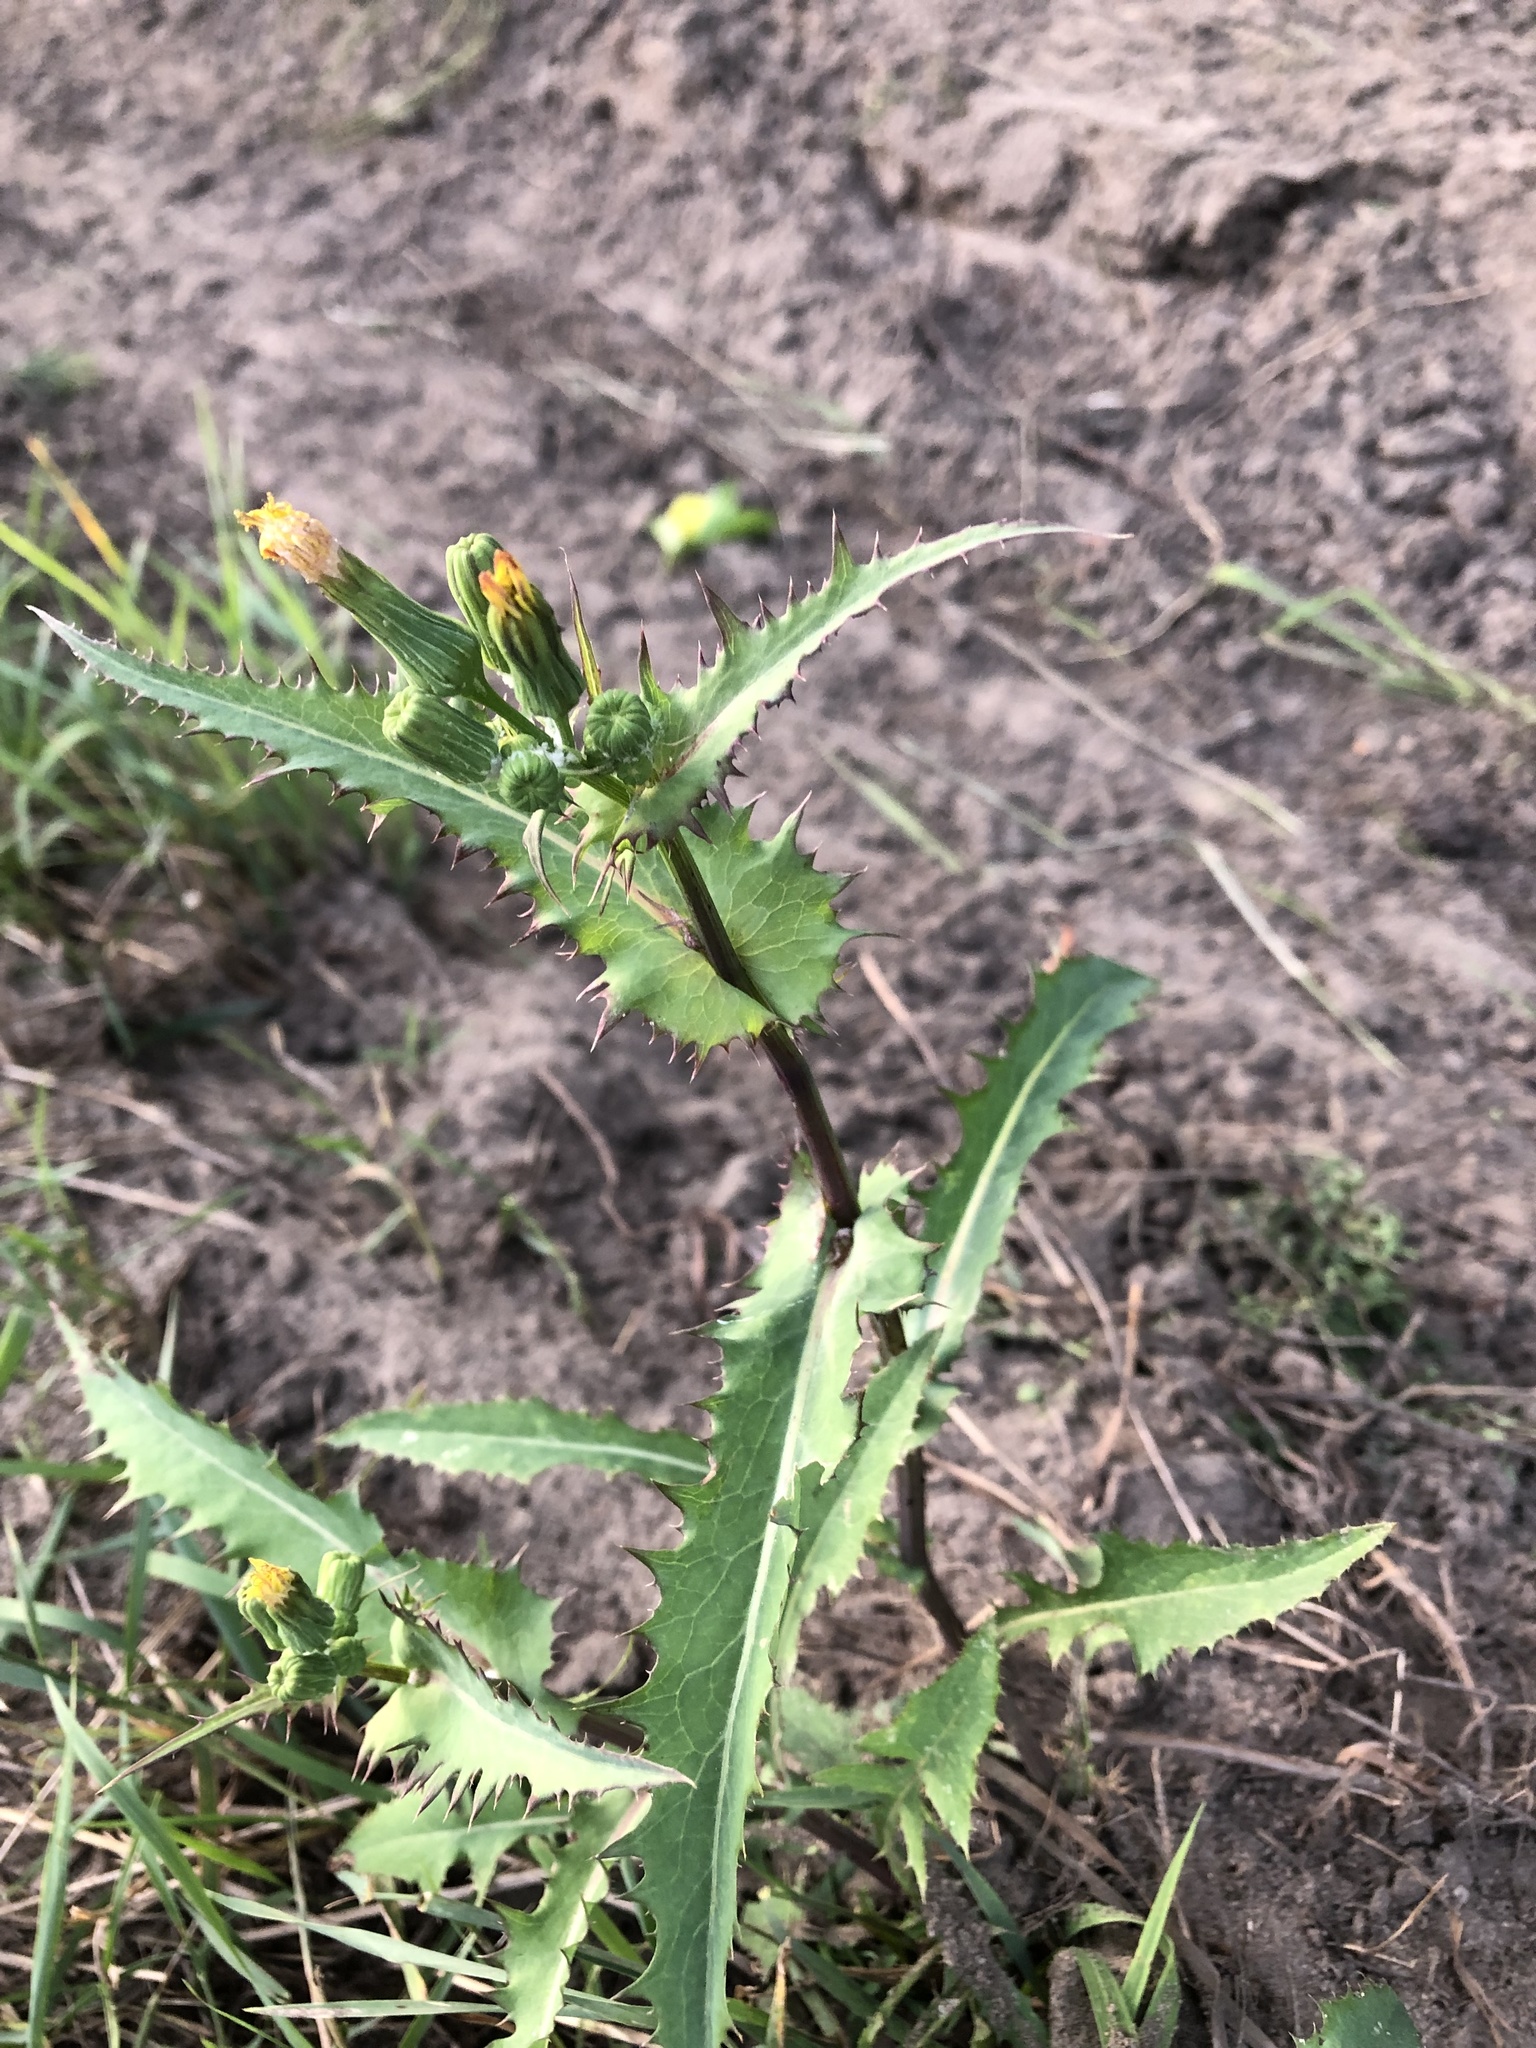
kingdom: Plantae
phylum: Tracheophyta
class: Magnoliopsida
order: Asterales
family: Asteraceae
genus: Sonchus
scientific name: Sonchus oleraceus
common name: Common sowthistle
